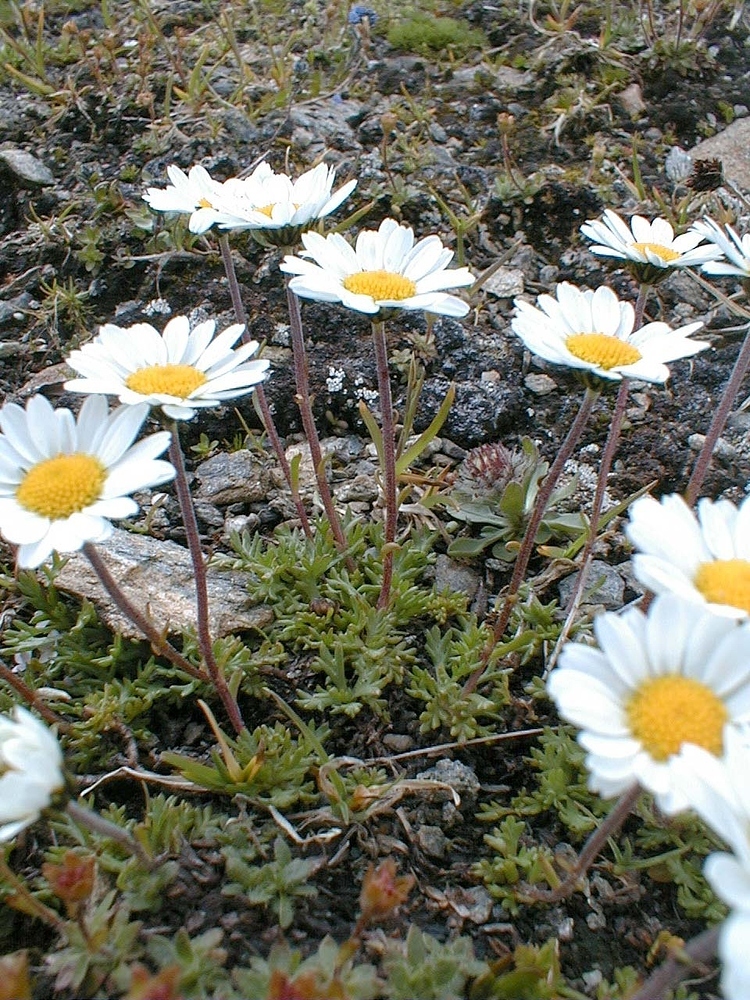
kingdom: Plantae
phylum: Tracheophyta
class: Magnoliopsida
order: Asterales
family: Asteraceae
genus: Leucanthemopsis
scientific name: Leucanthemopsis alpina
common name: Alpine moon daisy
